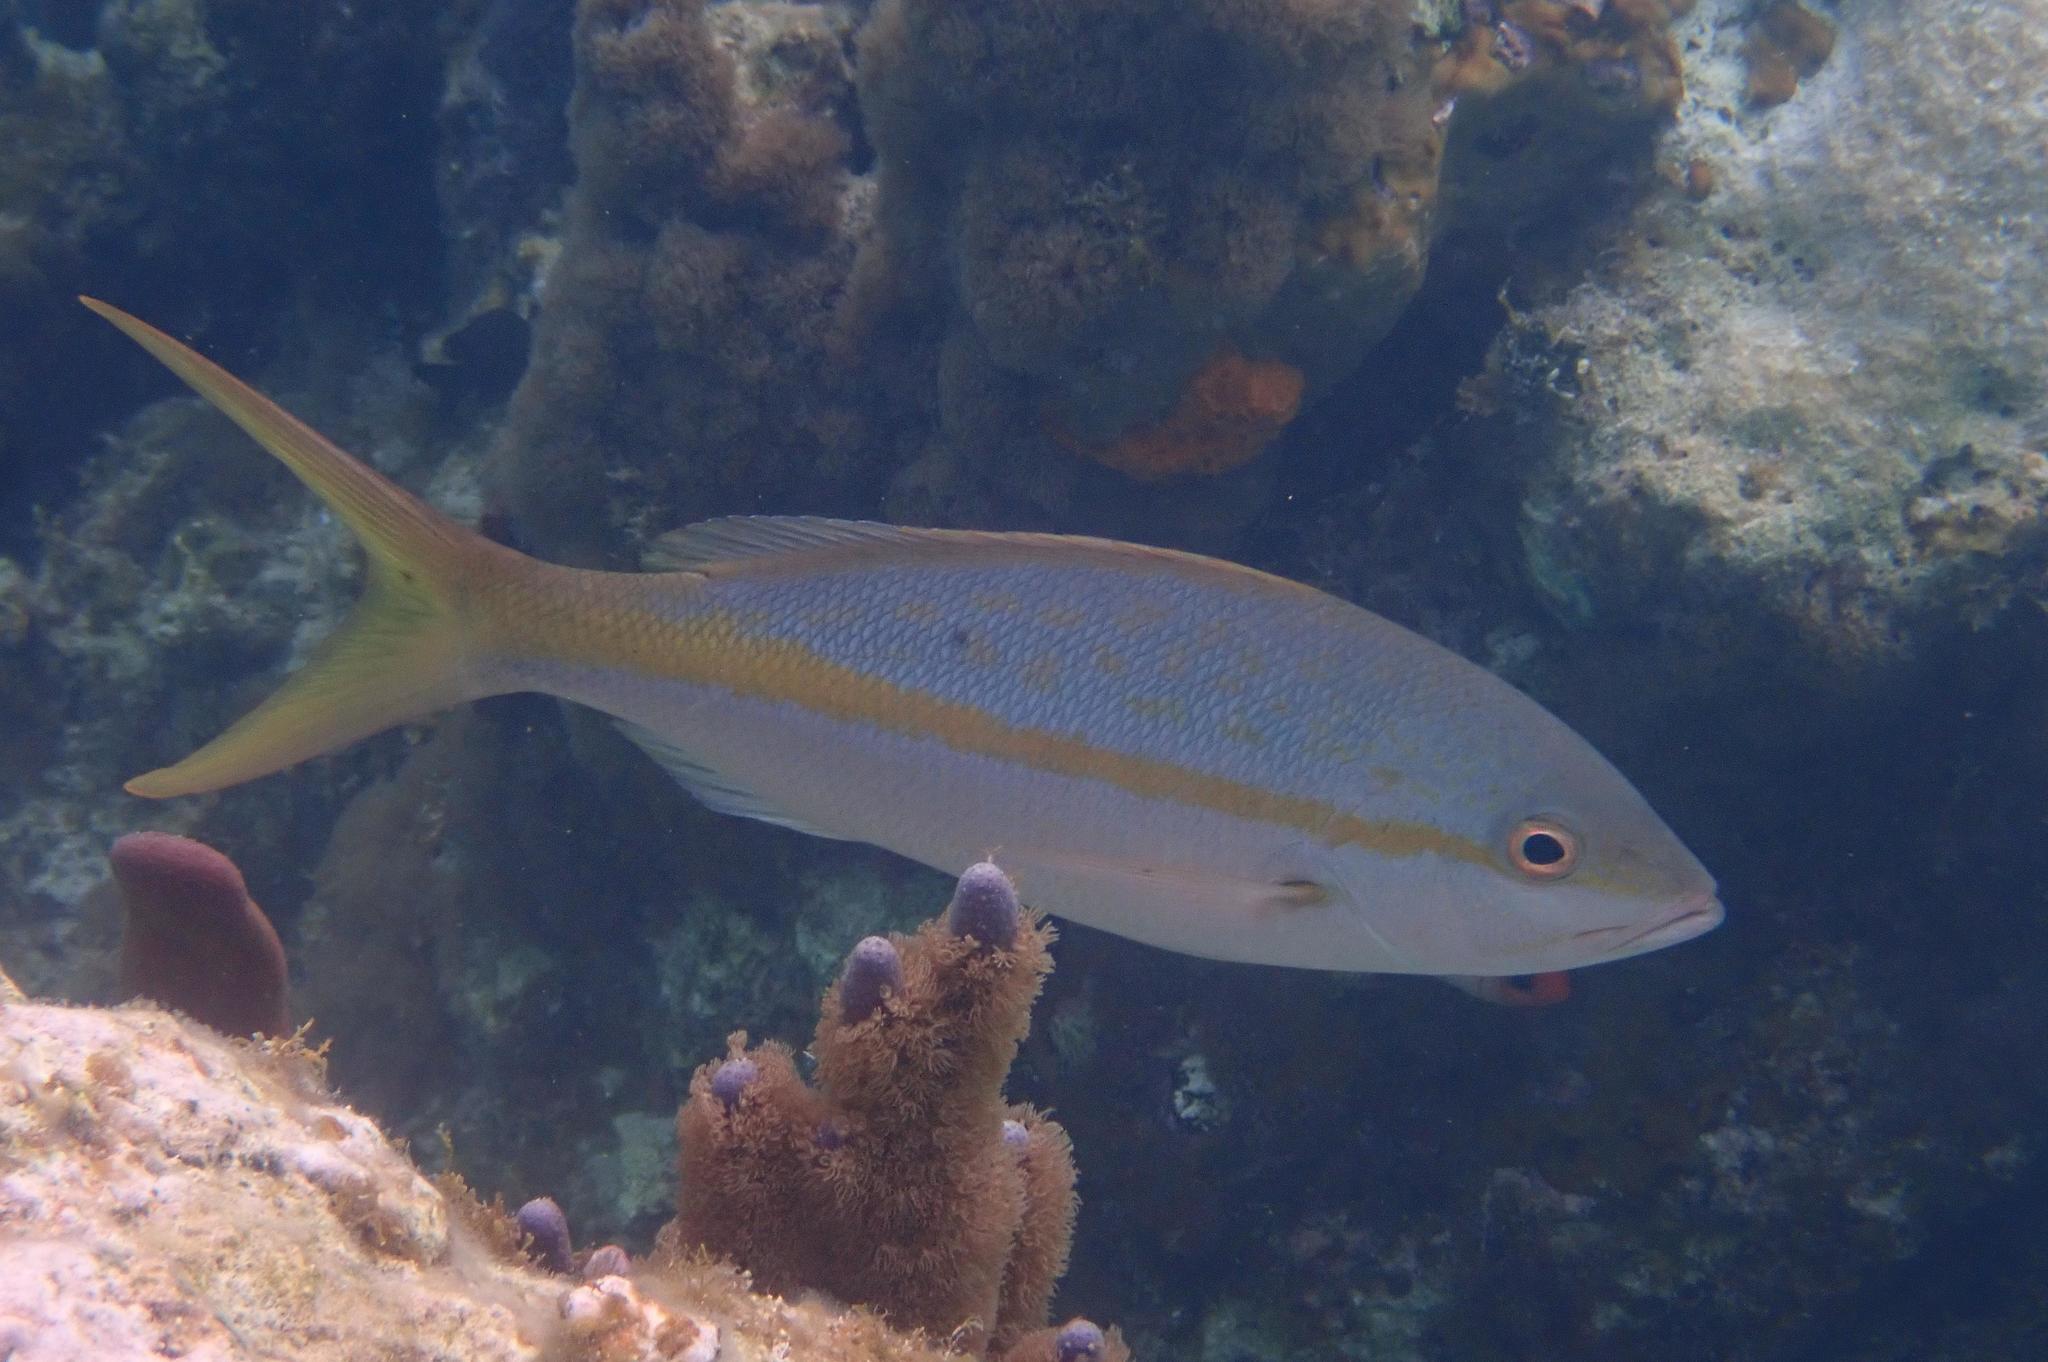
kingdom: Animalia
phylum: Chordata
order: Perciformes
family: Lutjanidae
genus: Ocyurus
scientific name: Ocyurus chrysurus
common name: Yellowtail snapper
